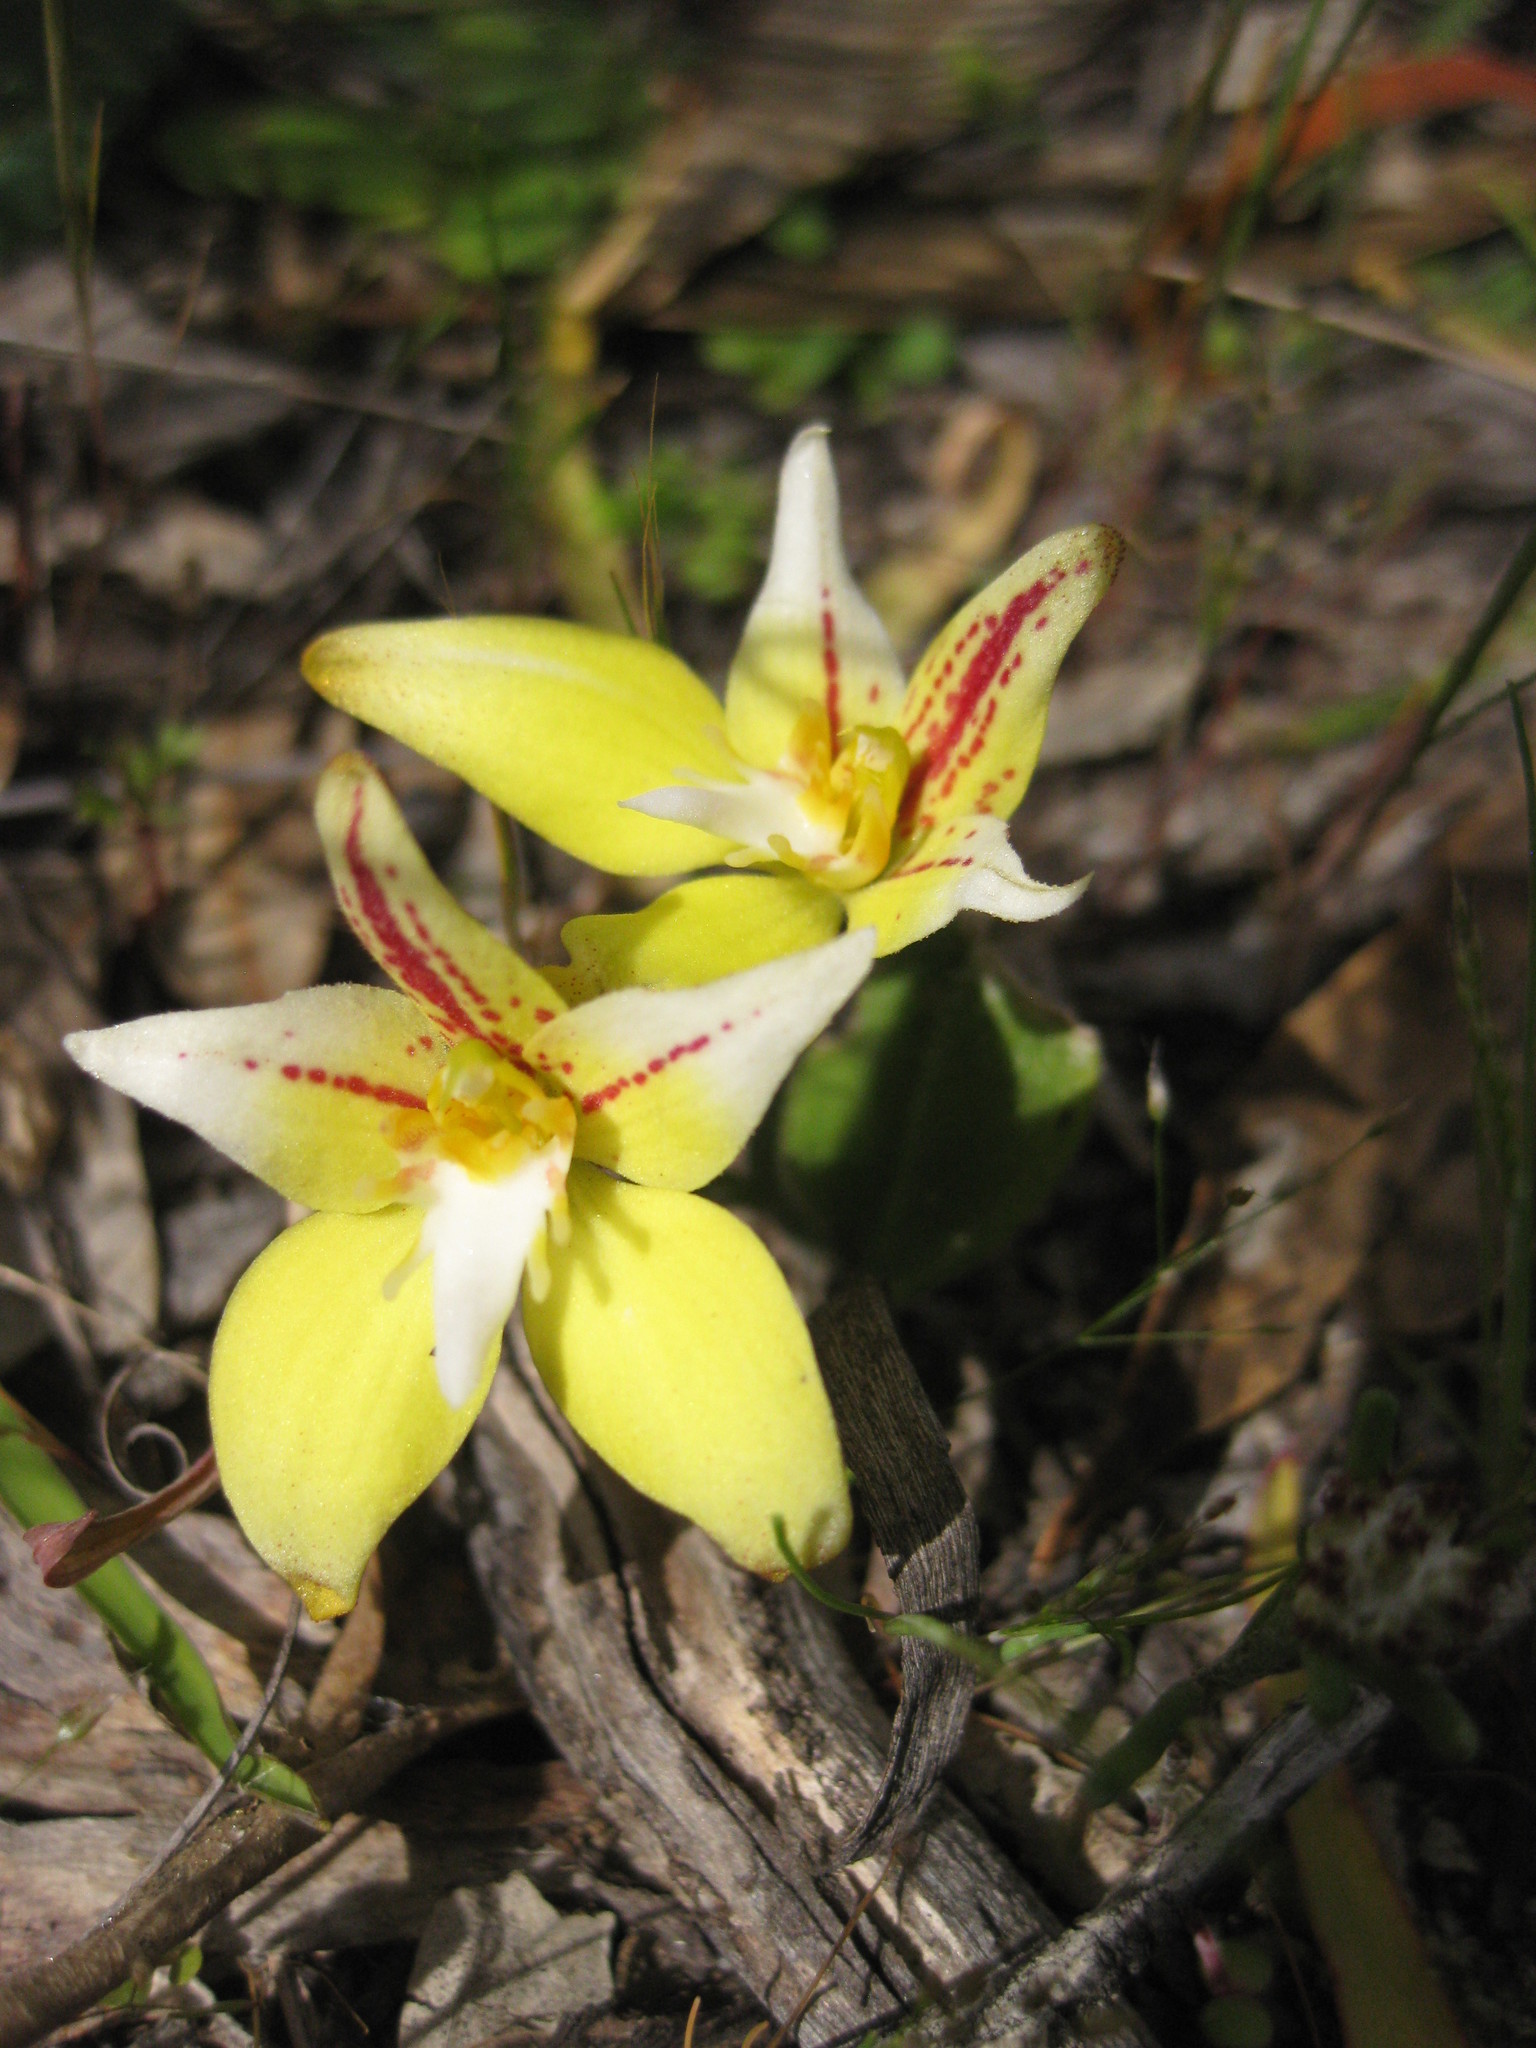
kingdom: Plantae
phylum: Tracheophyta
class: Liliopsida
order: Asparagales
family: Orchidaceae
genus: Caladenia
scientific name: Caladenia flava
